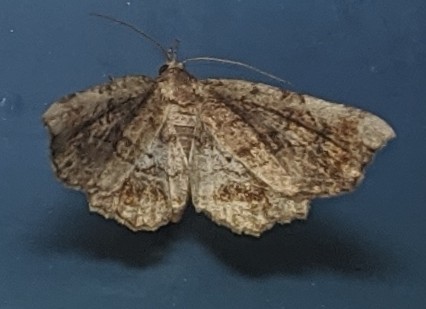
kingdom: Animalia
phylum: Arthropoda
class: Insecta
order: Lepidoptera
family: Erebidae
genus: Pangrapta
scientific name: Pangrapta decoralis
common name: Decorated owlet
